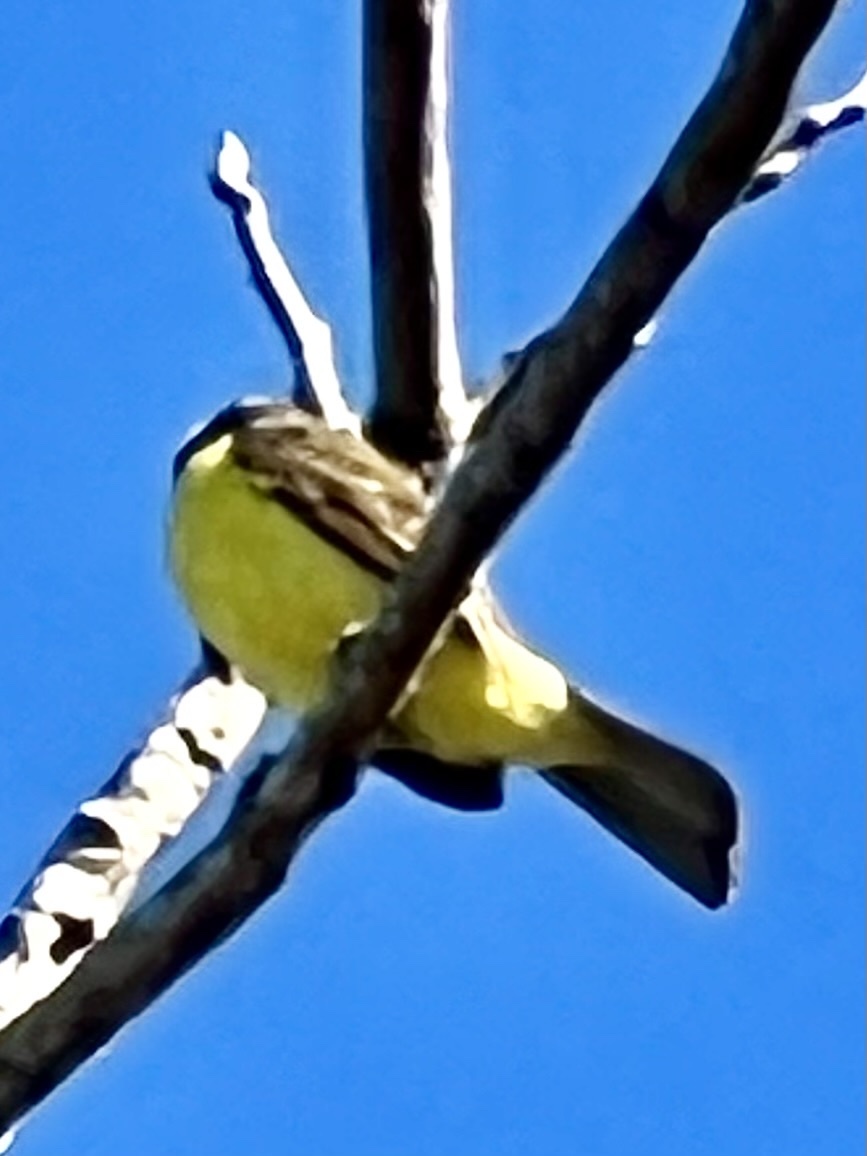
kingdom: Animalia
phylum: Chordata
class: Aves
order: Passeriformes
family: Tyrannidae
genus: Myiozetetes
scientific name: Myiozetetes similis
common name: Social flycatcher
